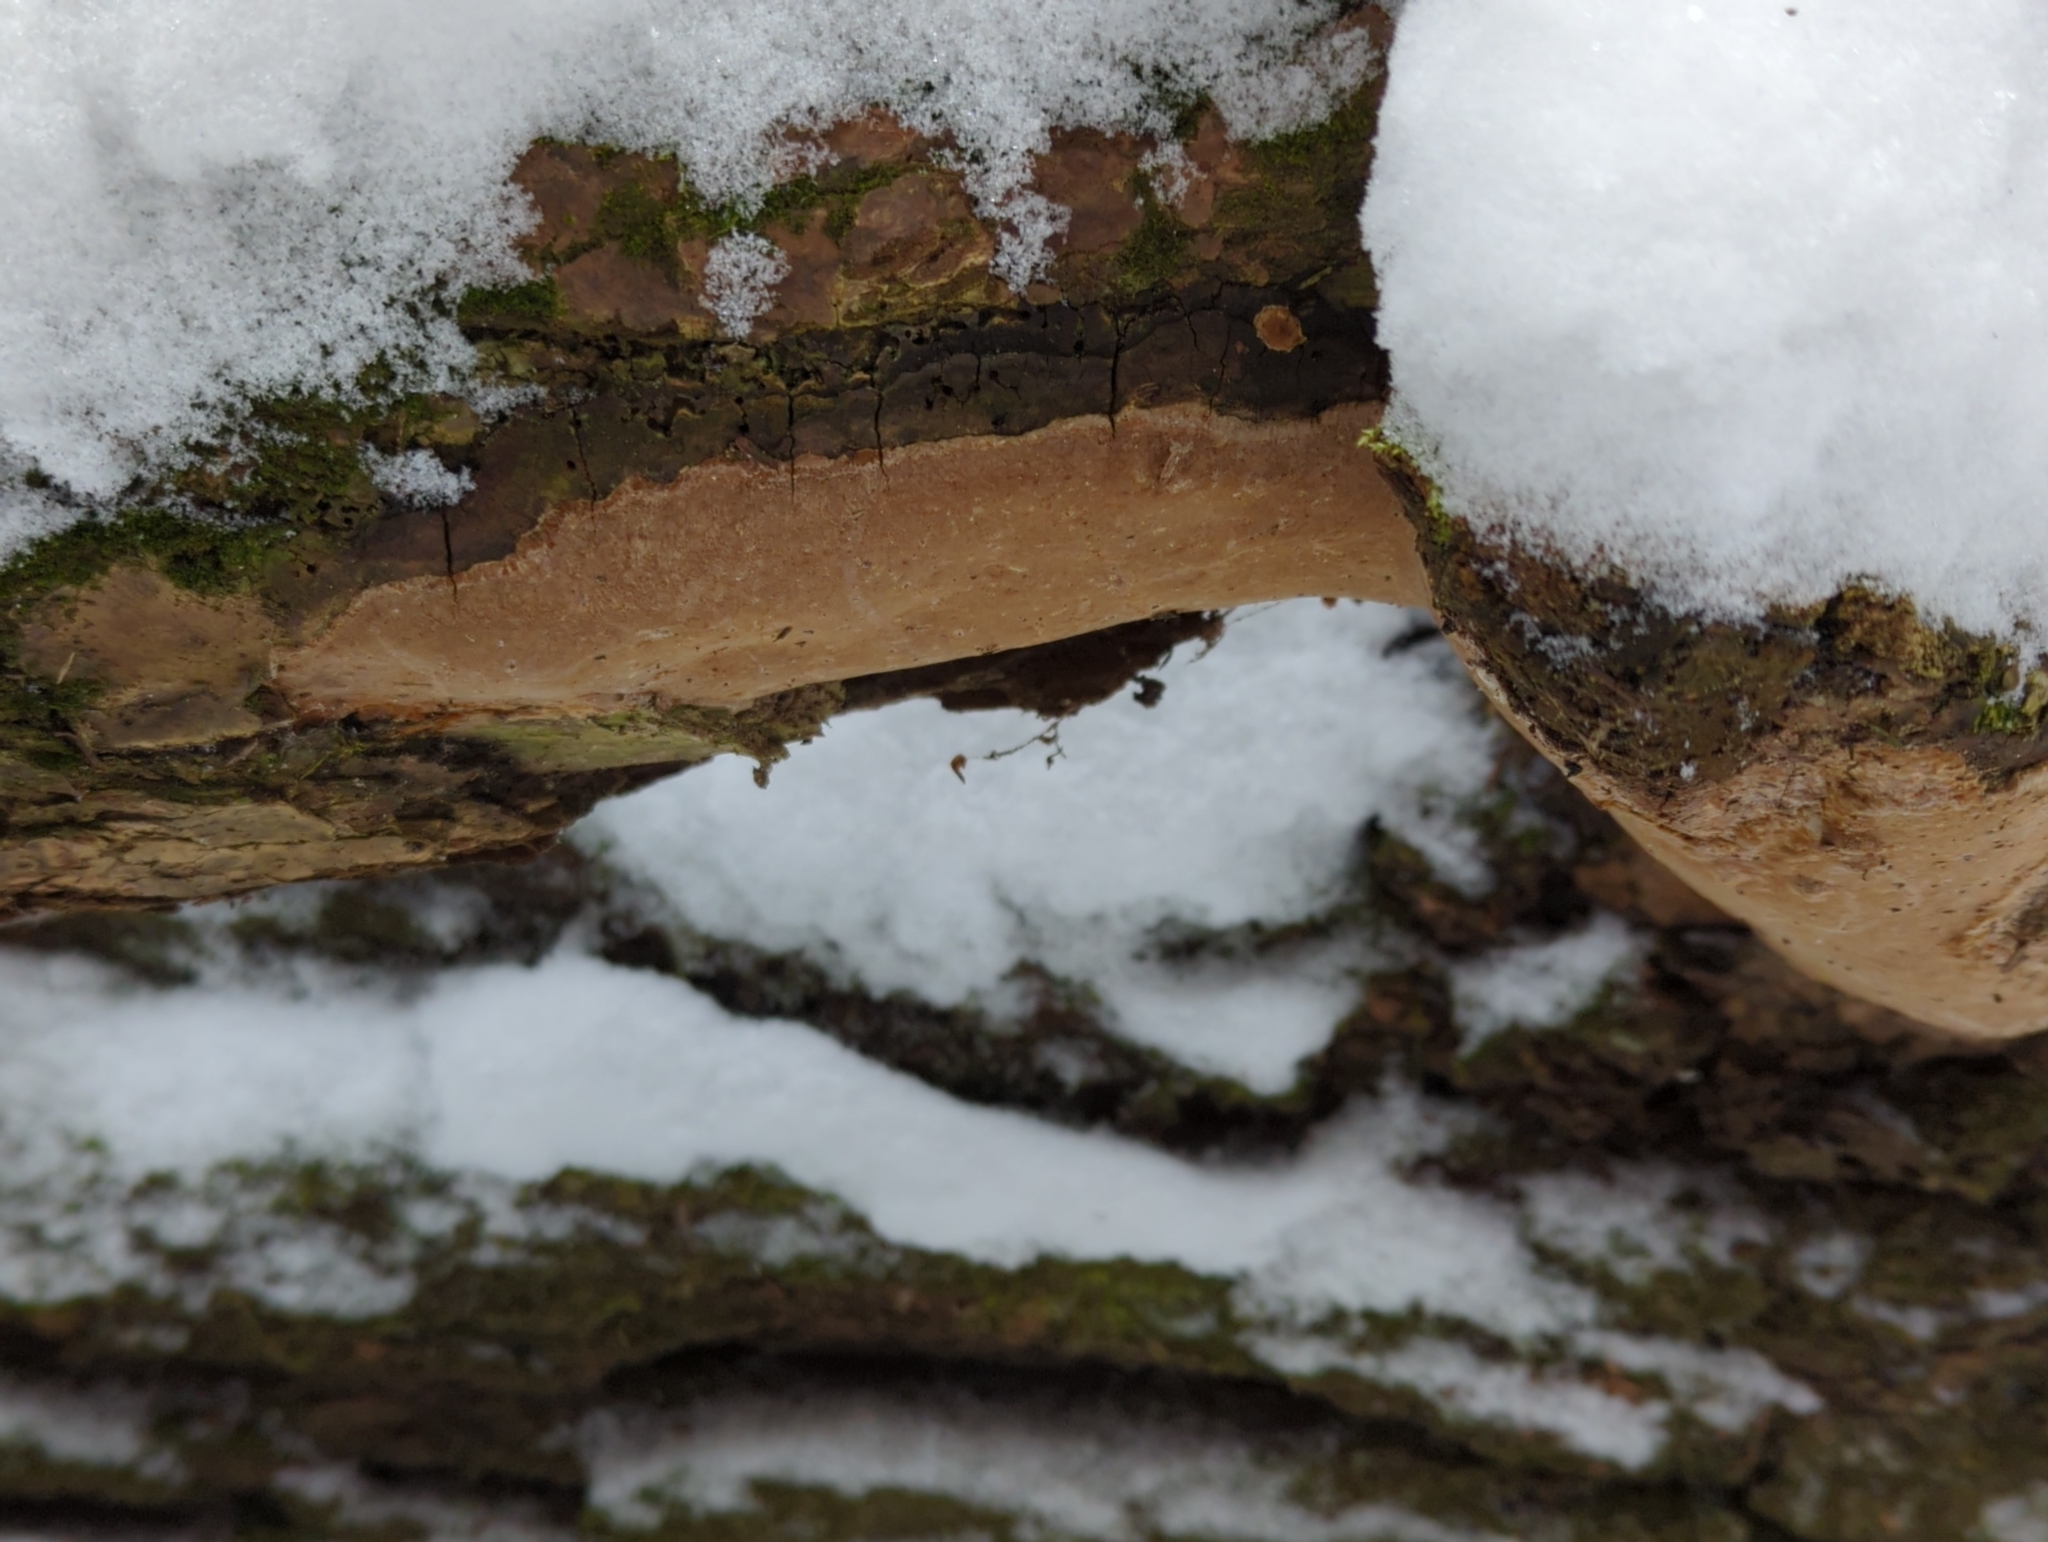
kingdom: Fungi
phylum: Basidiomycota
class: Agaricomycetes
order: Hymenochaetales
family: Hymenochaetaceae
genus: Fomitiporia
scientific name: Fomitiporia punctata
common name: Elbowpatch crust
